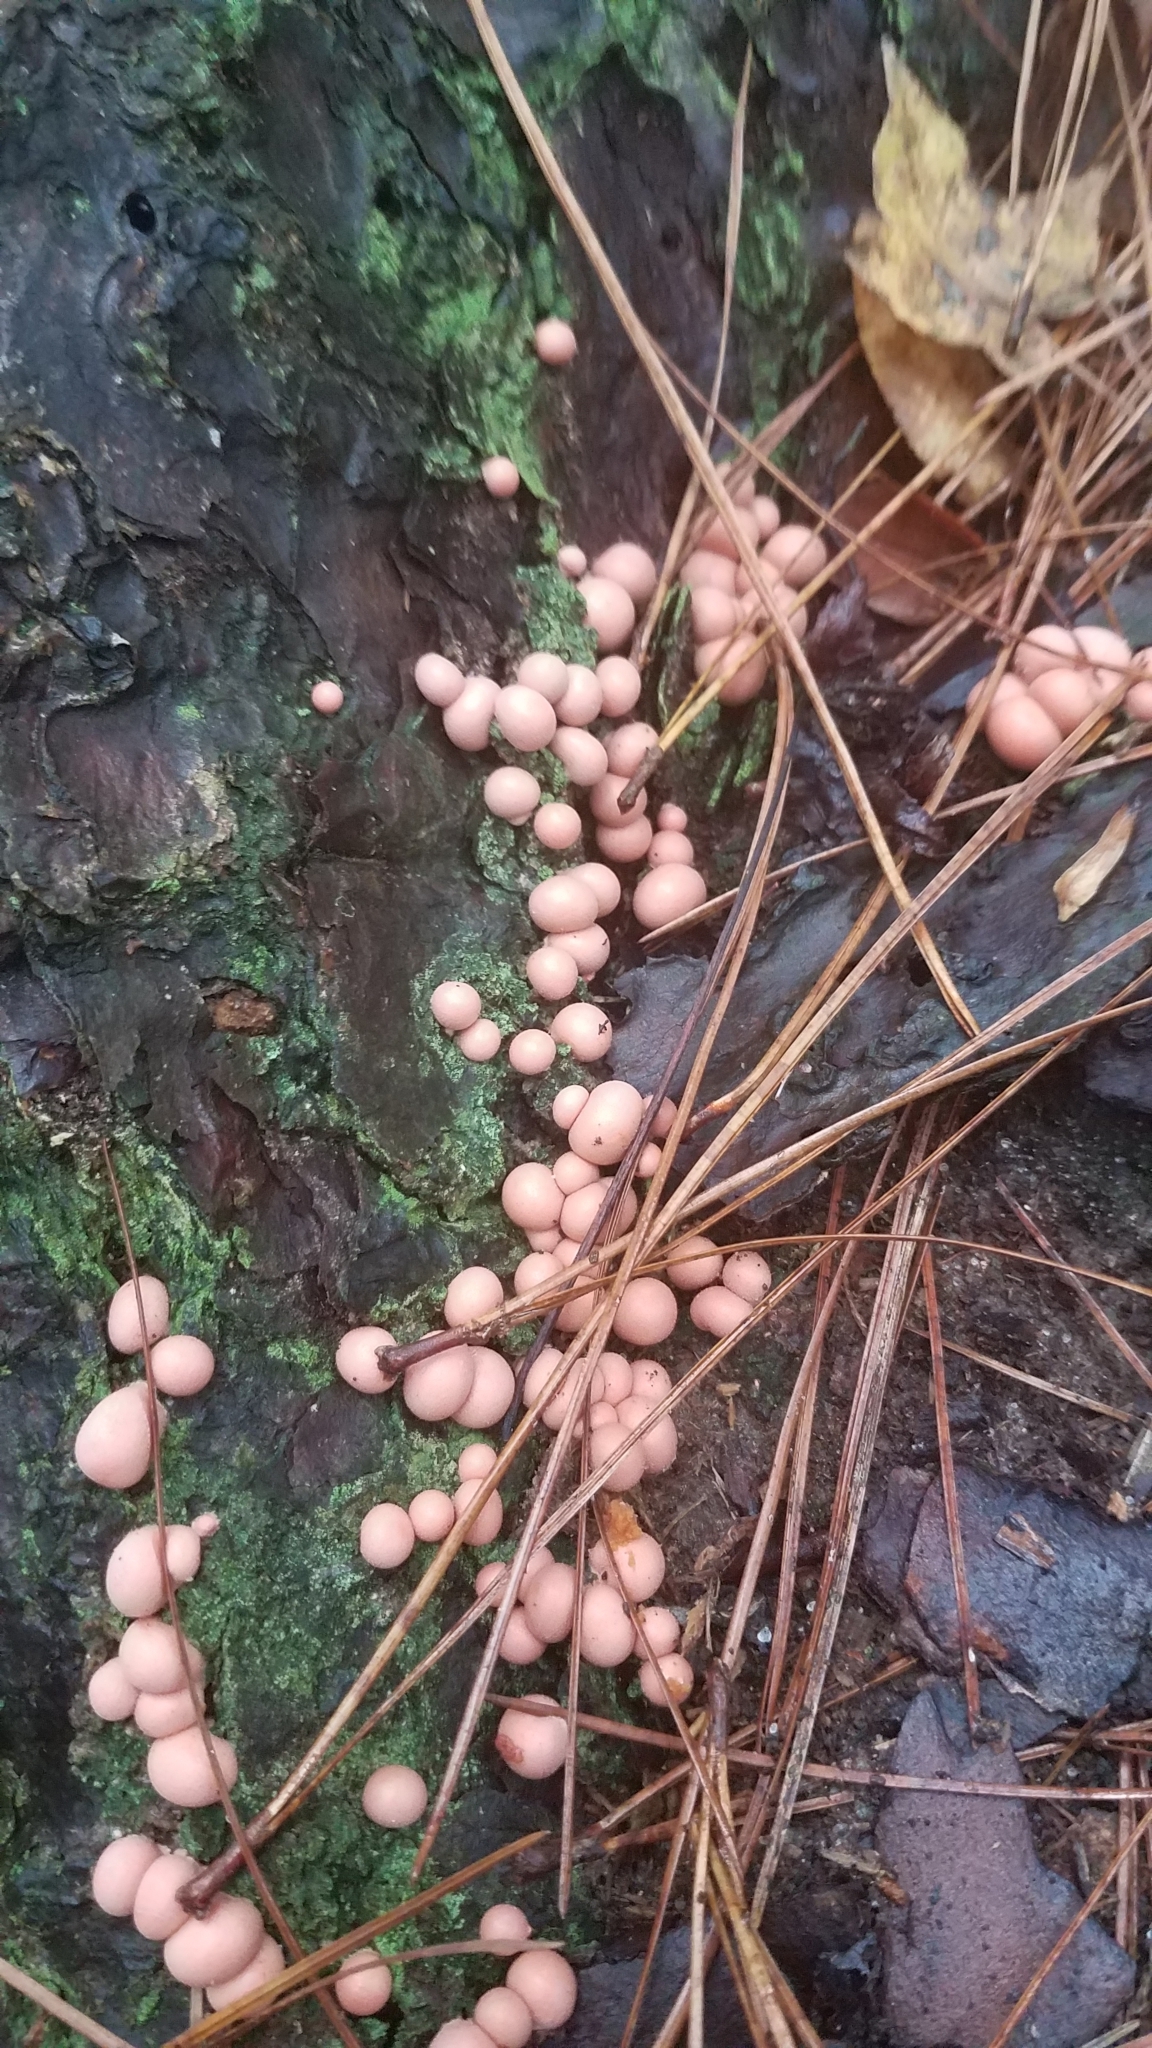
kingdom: Protozoa
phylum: Mycetozoa
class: Myxomycetes
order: Cribrariales
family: Tubiferaceae
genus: Lycogala
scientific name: Lycogala epidendrum
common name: Wolf's milk
